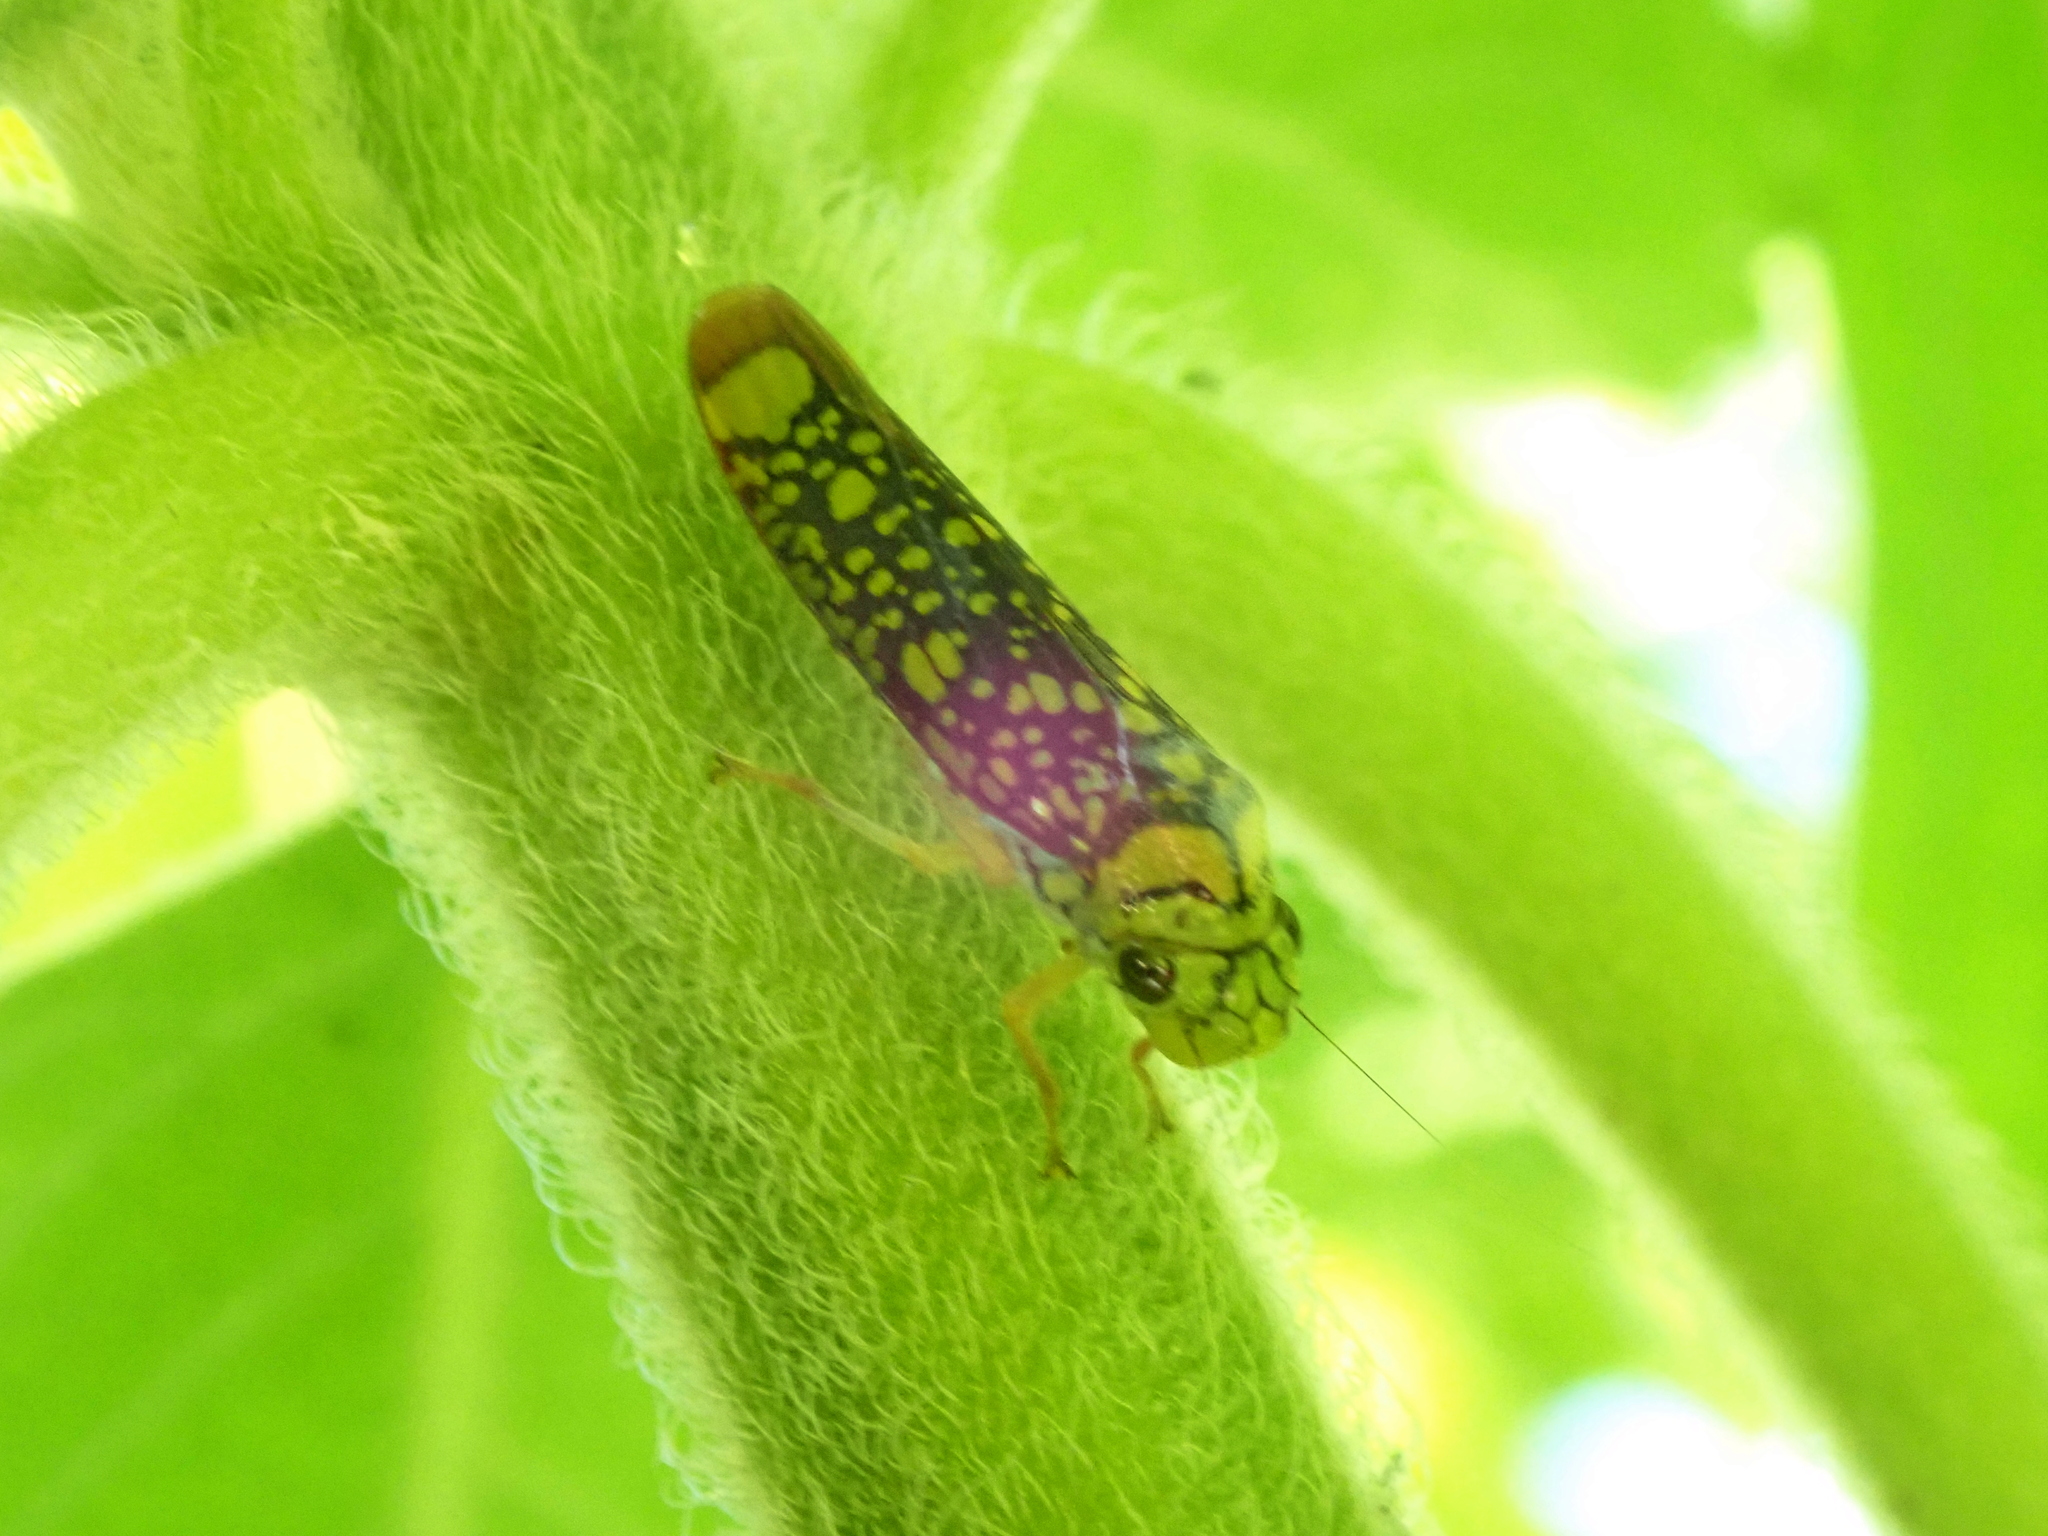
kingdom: Animalia
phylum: Arthropoda
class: Insecta
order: Hemiptera
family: Cicadellidae
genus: Aulacizes
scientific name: Aulacizes conspersa
